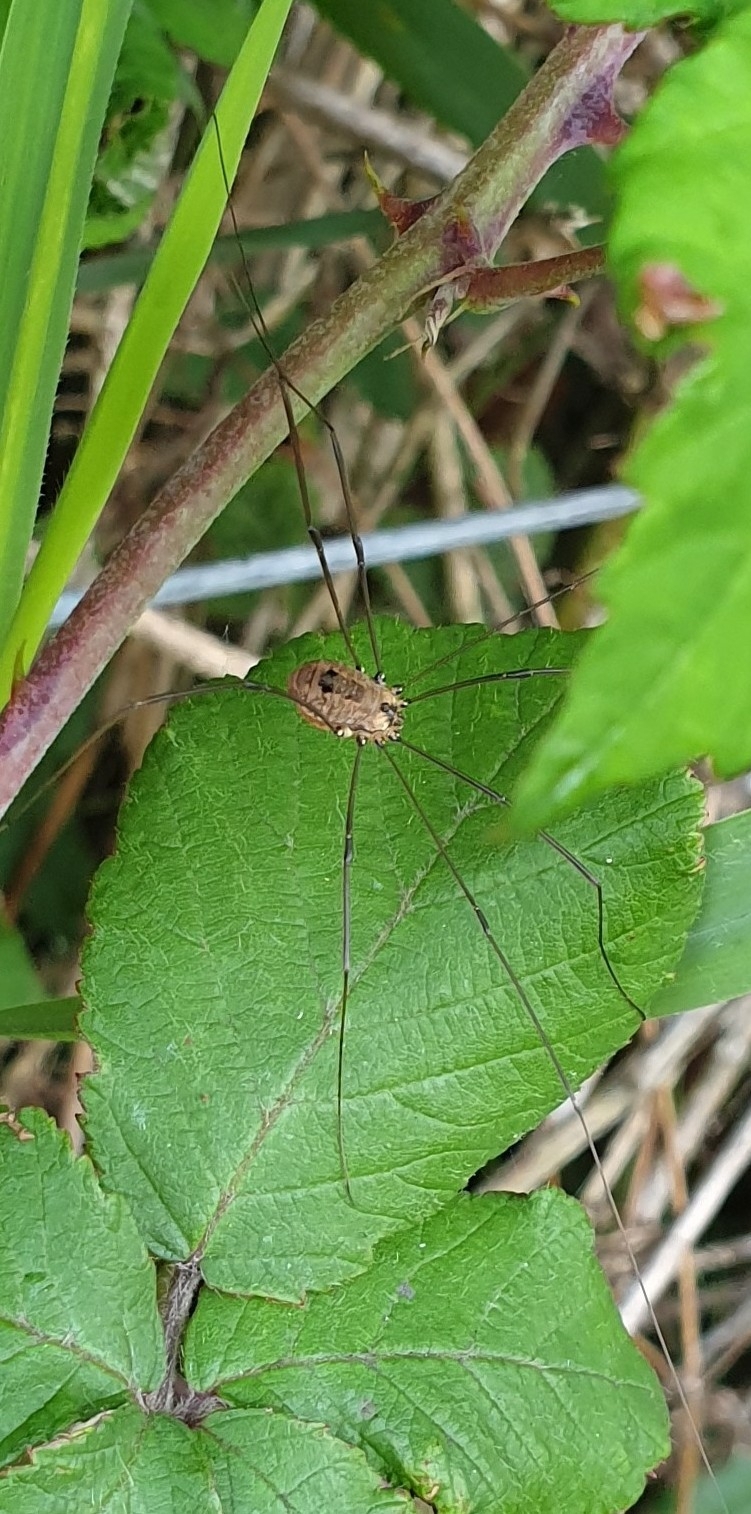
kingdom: Animalia
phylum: Arthropoda
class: Arachnida
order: Opiliones
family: Sclerosomatidae
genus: Leiobunum
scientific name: Leiobunum rotundum
